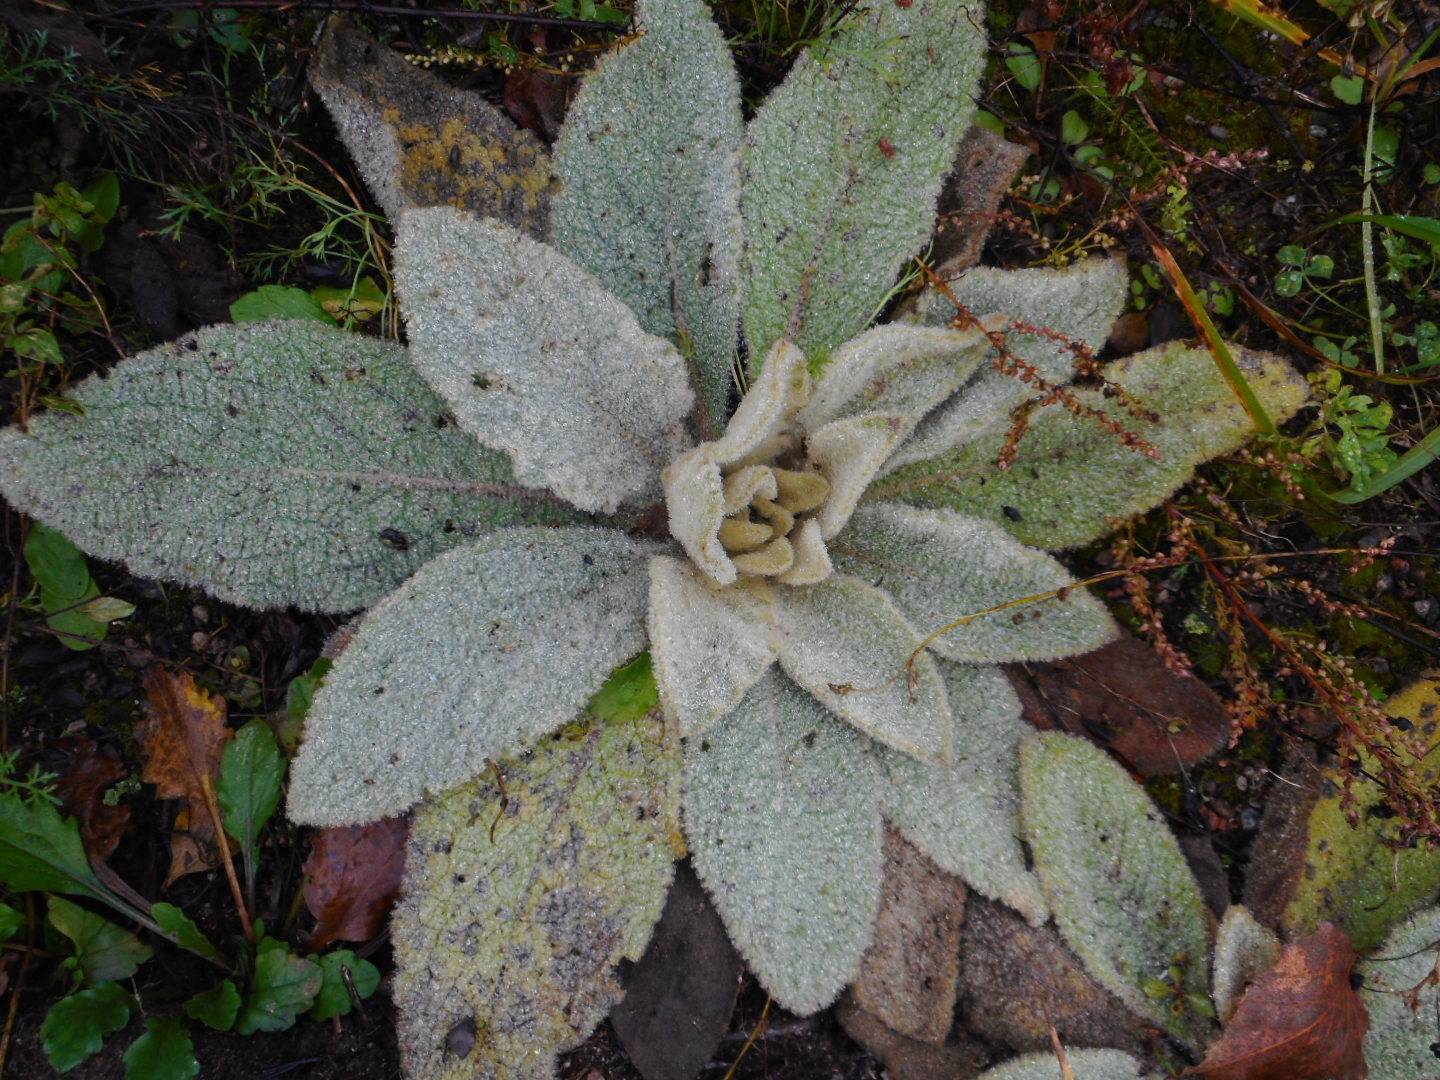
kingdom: Plantae
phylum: Tracheophyta
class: Magnoliopsida
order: Lamiales
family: Scrophulariaceae
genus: Verbascum
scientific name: Verbascum thapsus
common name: Common mullein
